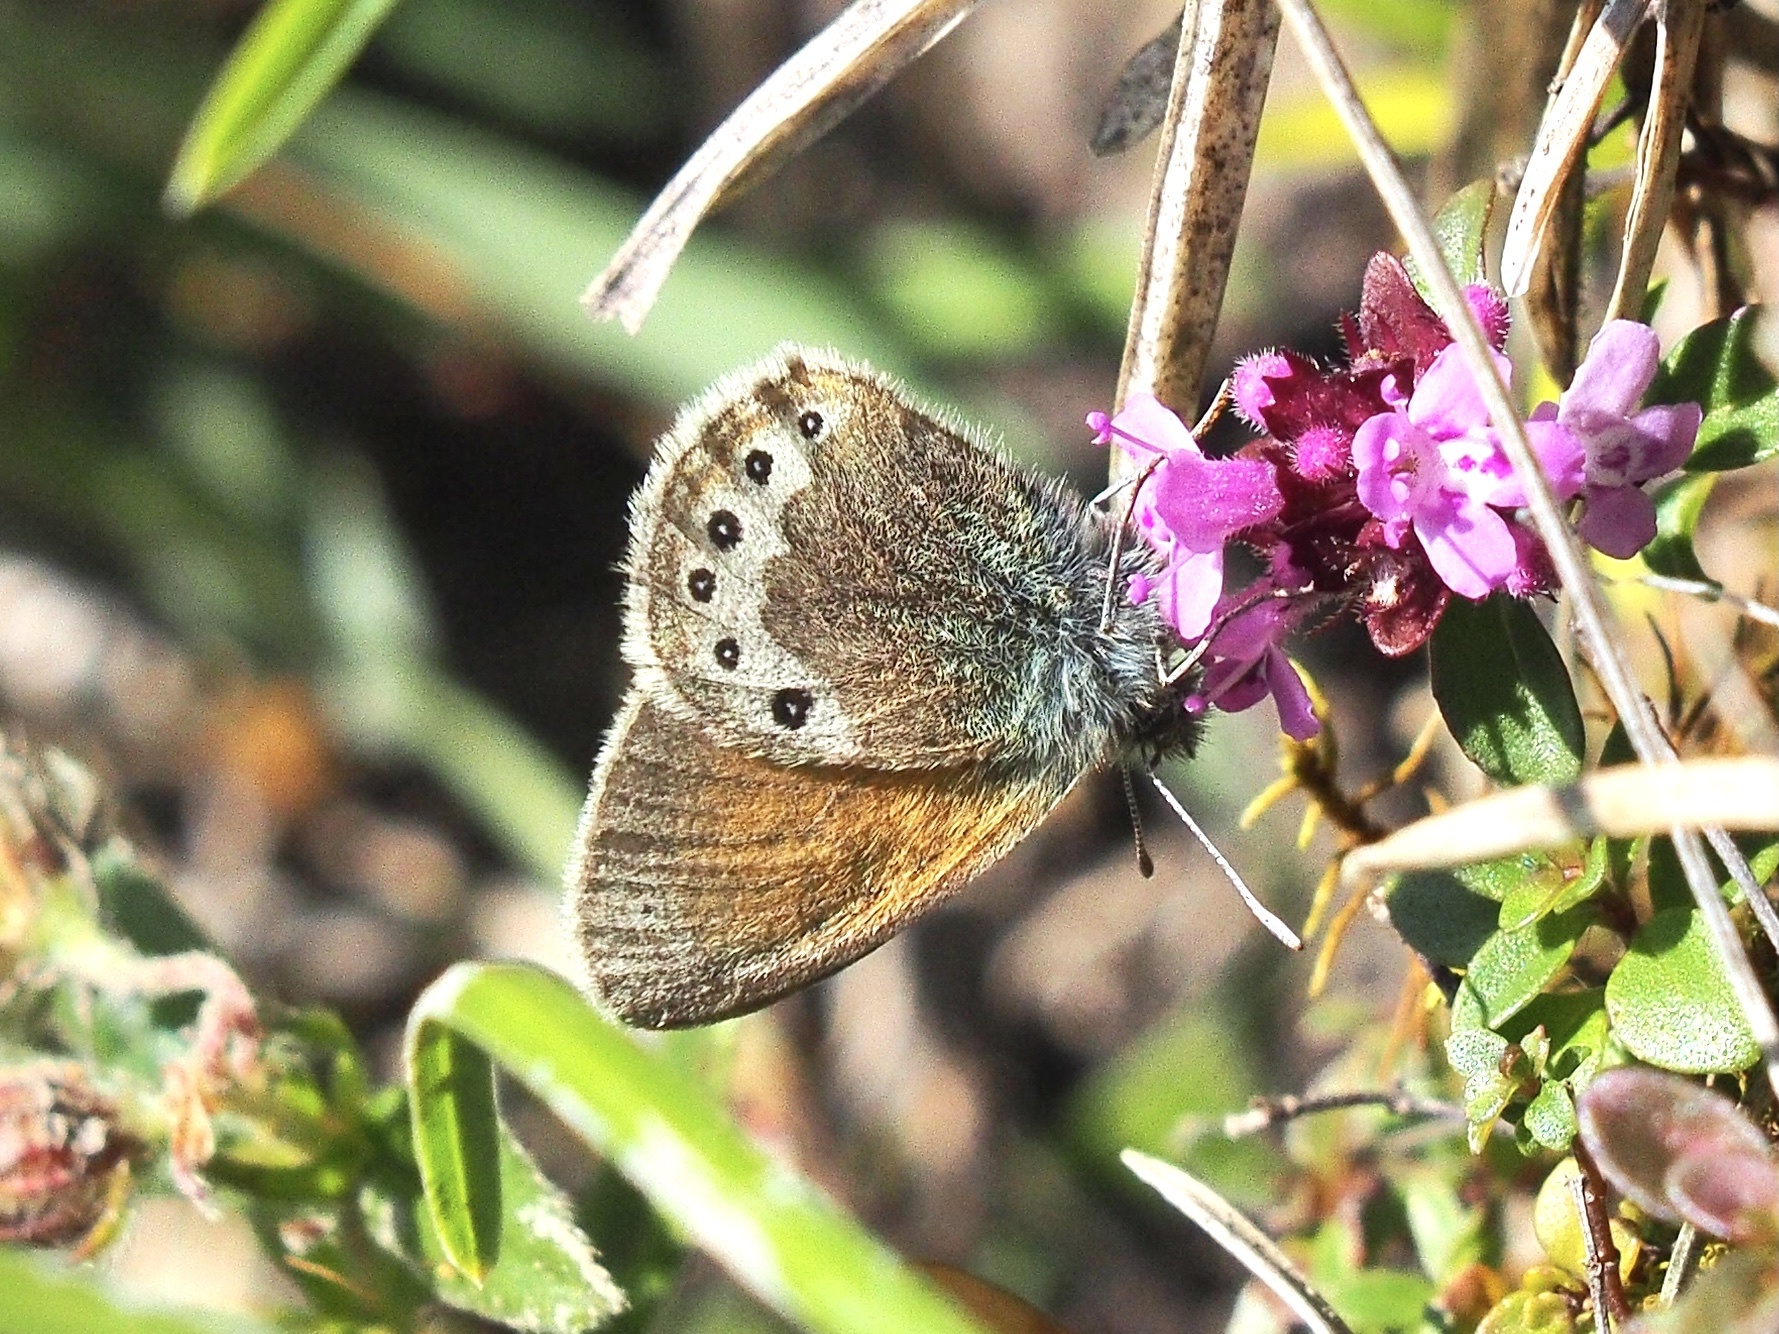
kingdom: Animalia
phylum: Arthropoda
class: Insecta
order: Lepidoptera
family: Nymphalidae
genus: Coenonympha
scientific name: Coenonympha
